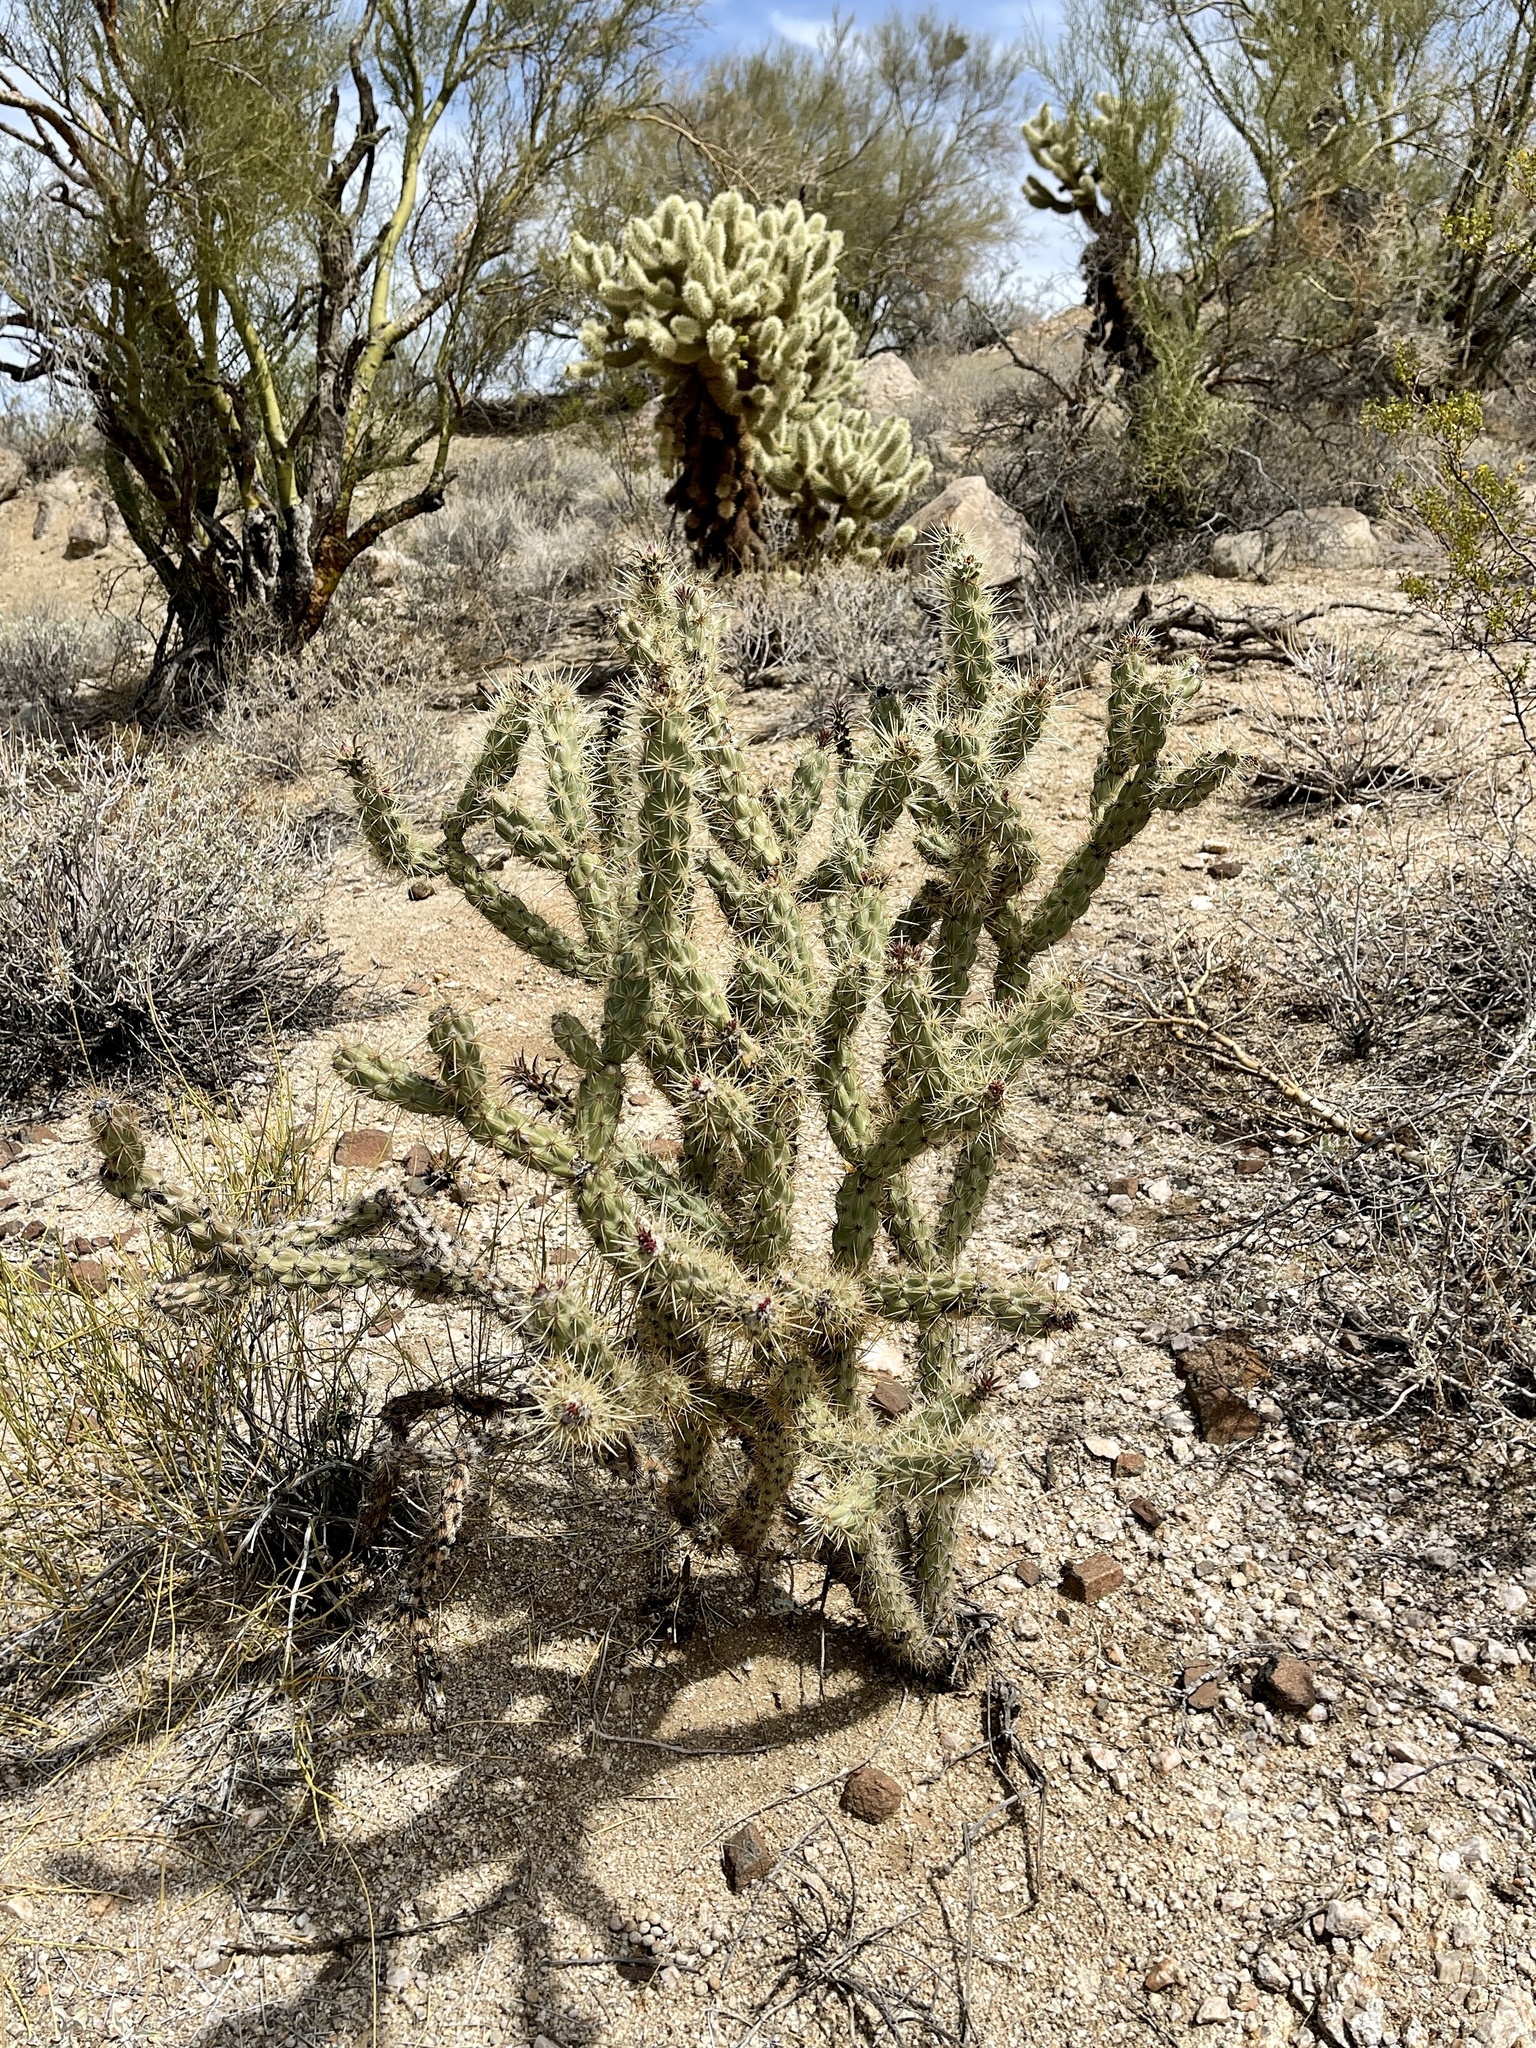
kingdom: Plantae
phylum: Tracheophyta
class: Magnoliopsida
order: Caryophyllales
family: Cactaceae
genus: Cylindropuntia
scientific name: Cylindropuntia acanthocarpa
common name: Buckhorn cholla
